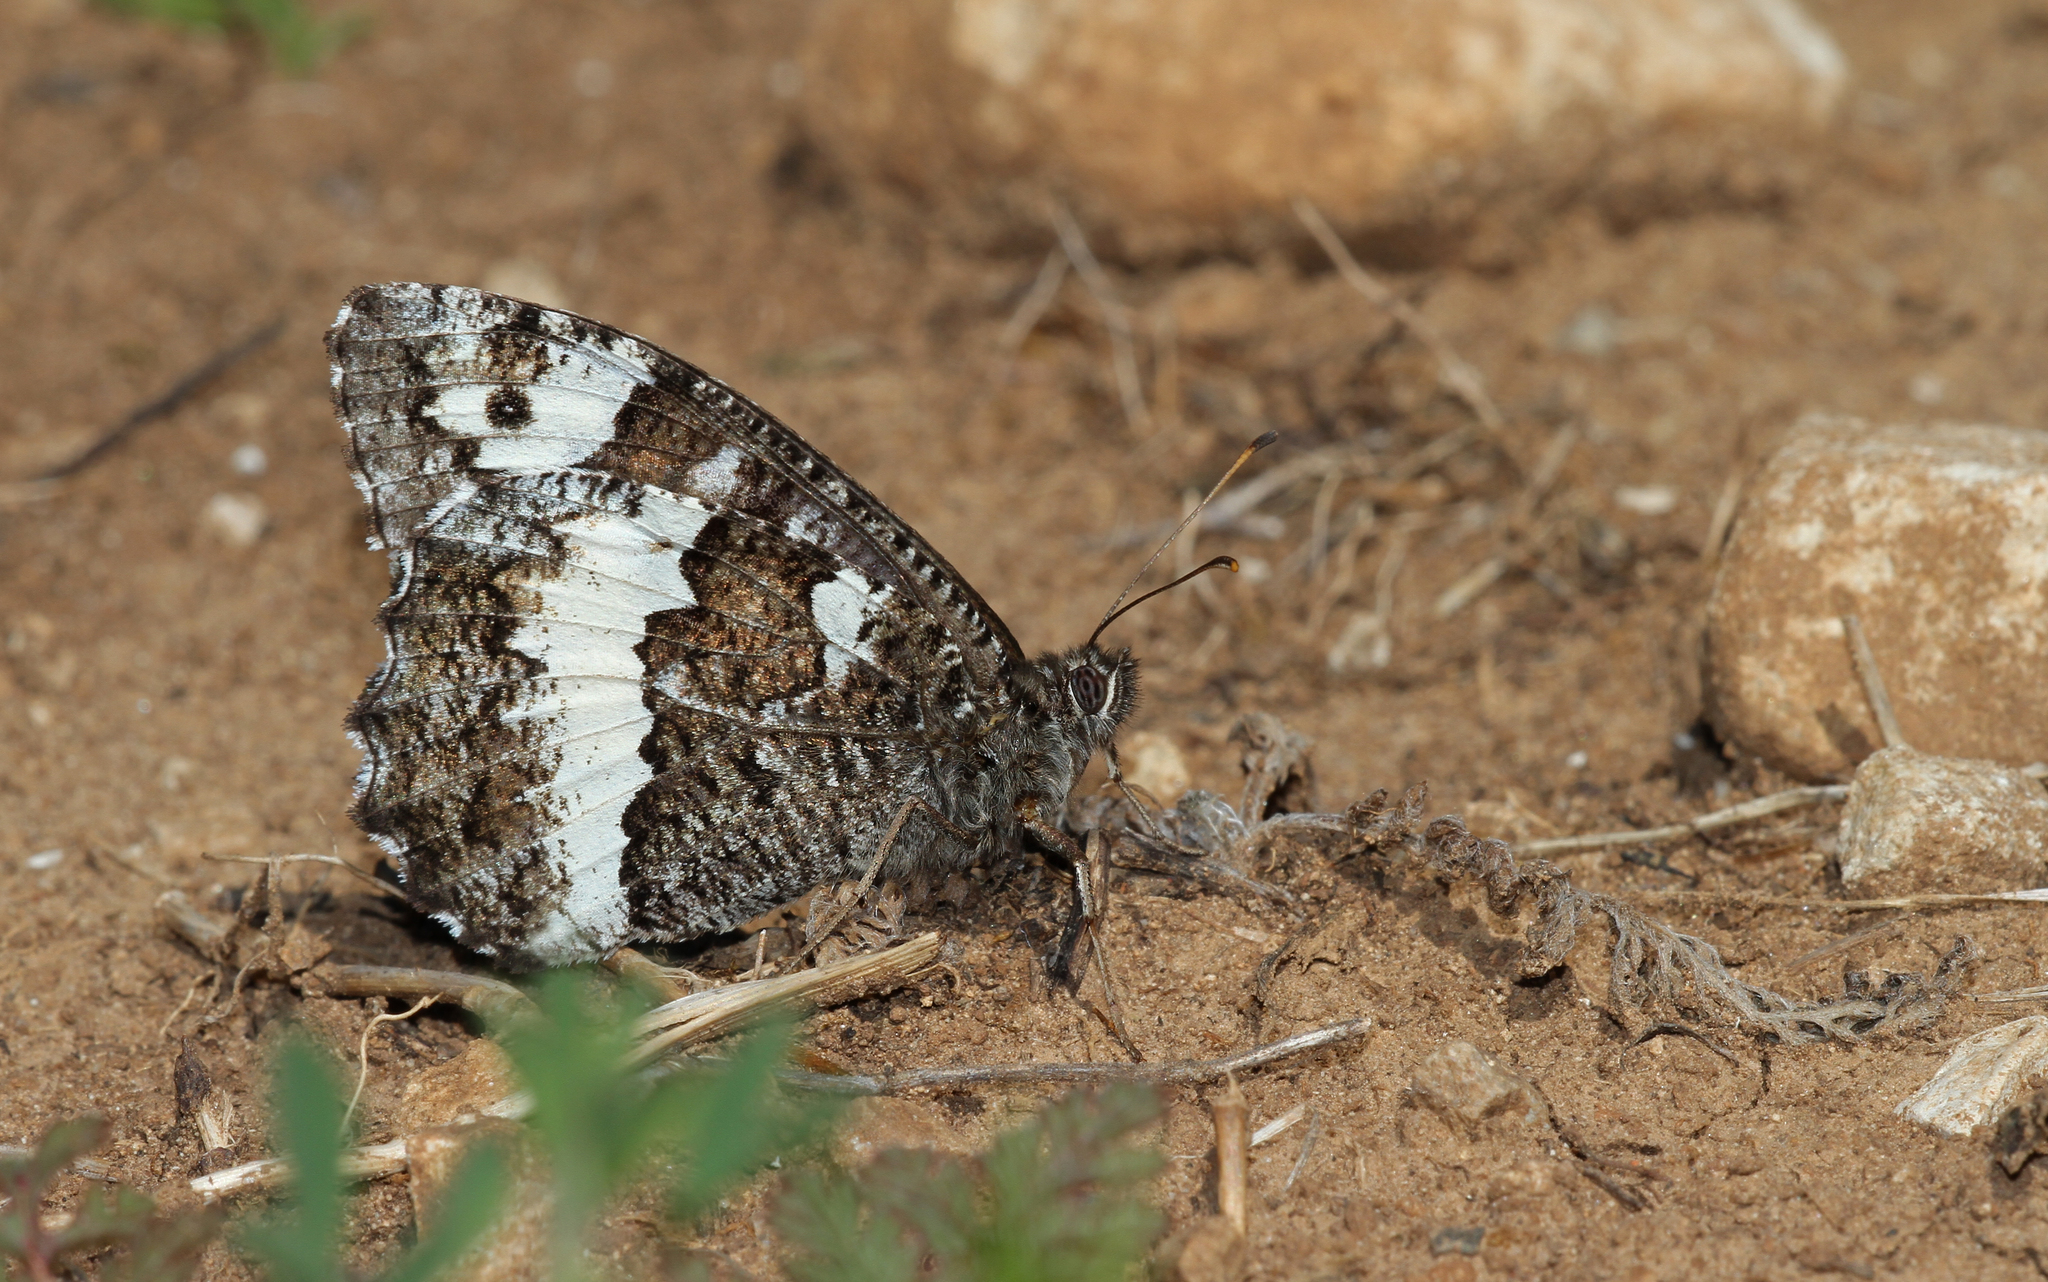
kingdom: Animalia
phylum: Arthropoda
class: Insecta
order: Lepidoptera
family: Lycaenidae
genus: Loweia
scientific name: Loweia tityrus
